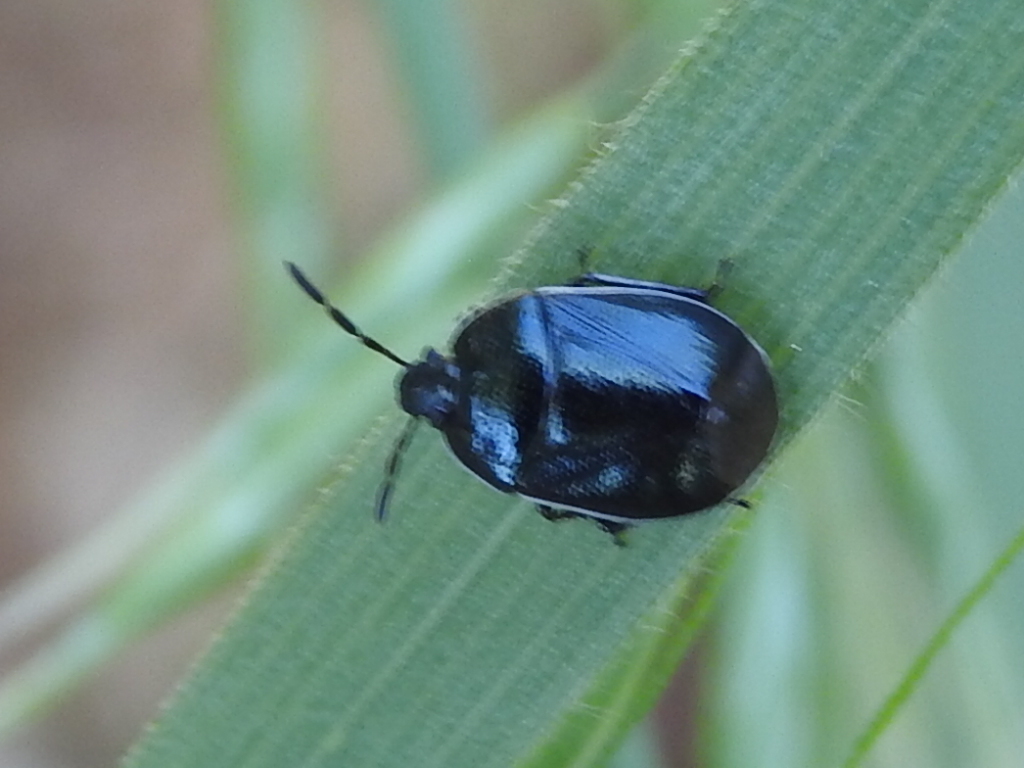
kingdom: Animalia
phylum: Arthropoda
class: Insecta
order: Hemiptera
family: Cydnidae
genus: Sehirus
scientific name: Sehirus cinctus
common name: White-margined burrower bug
